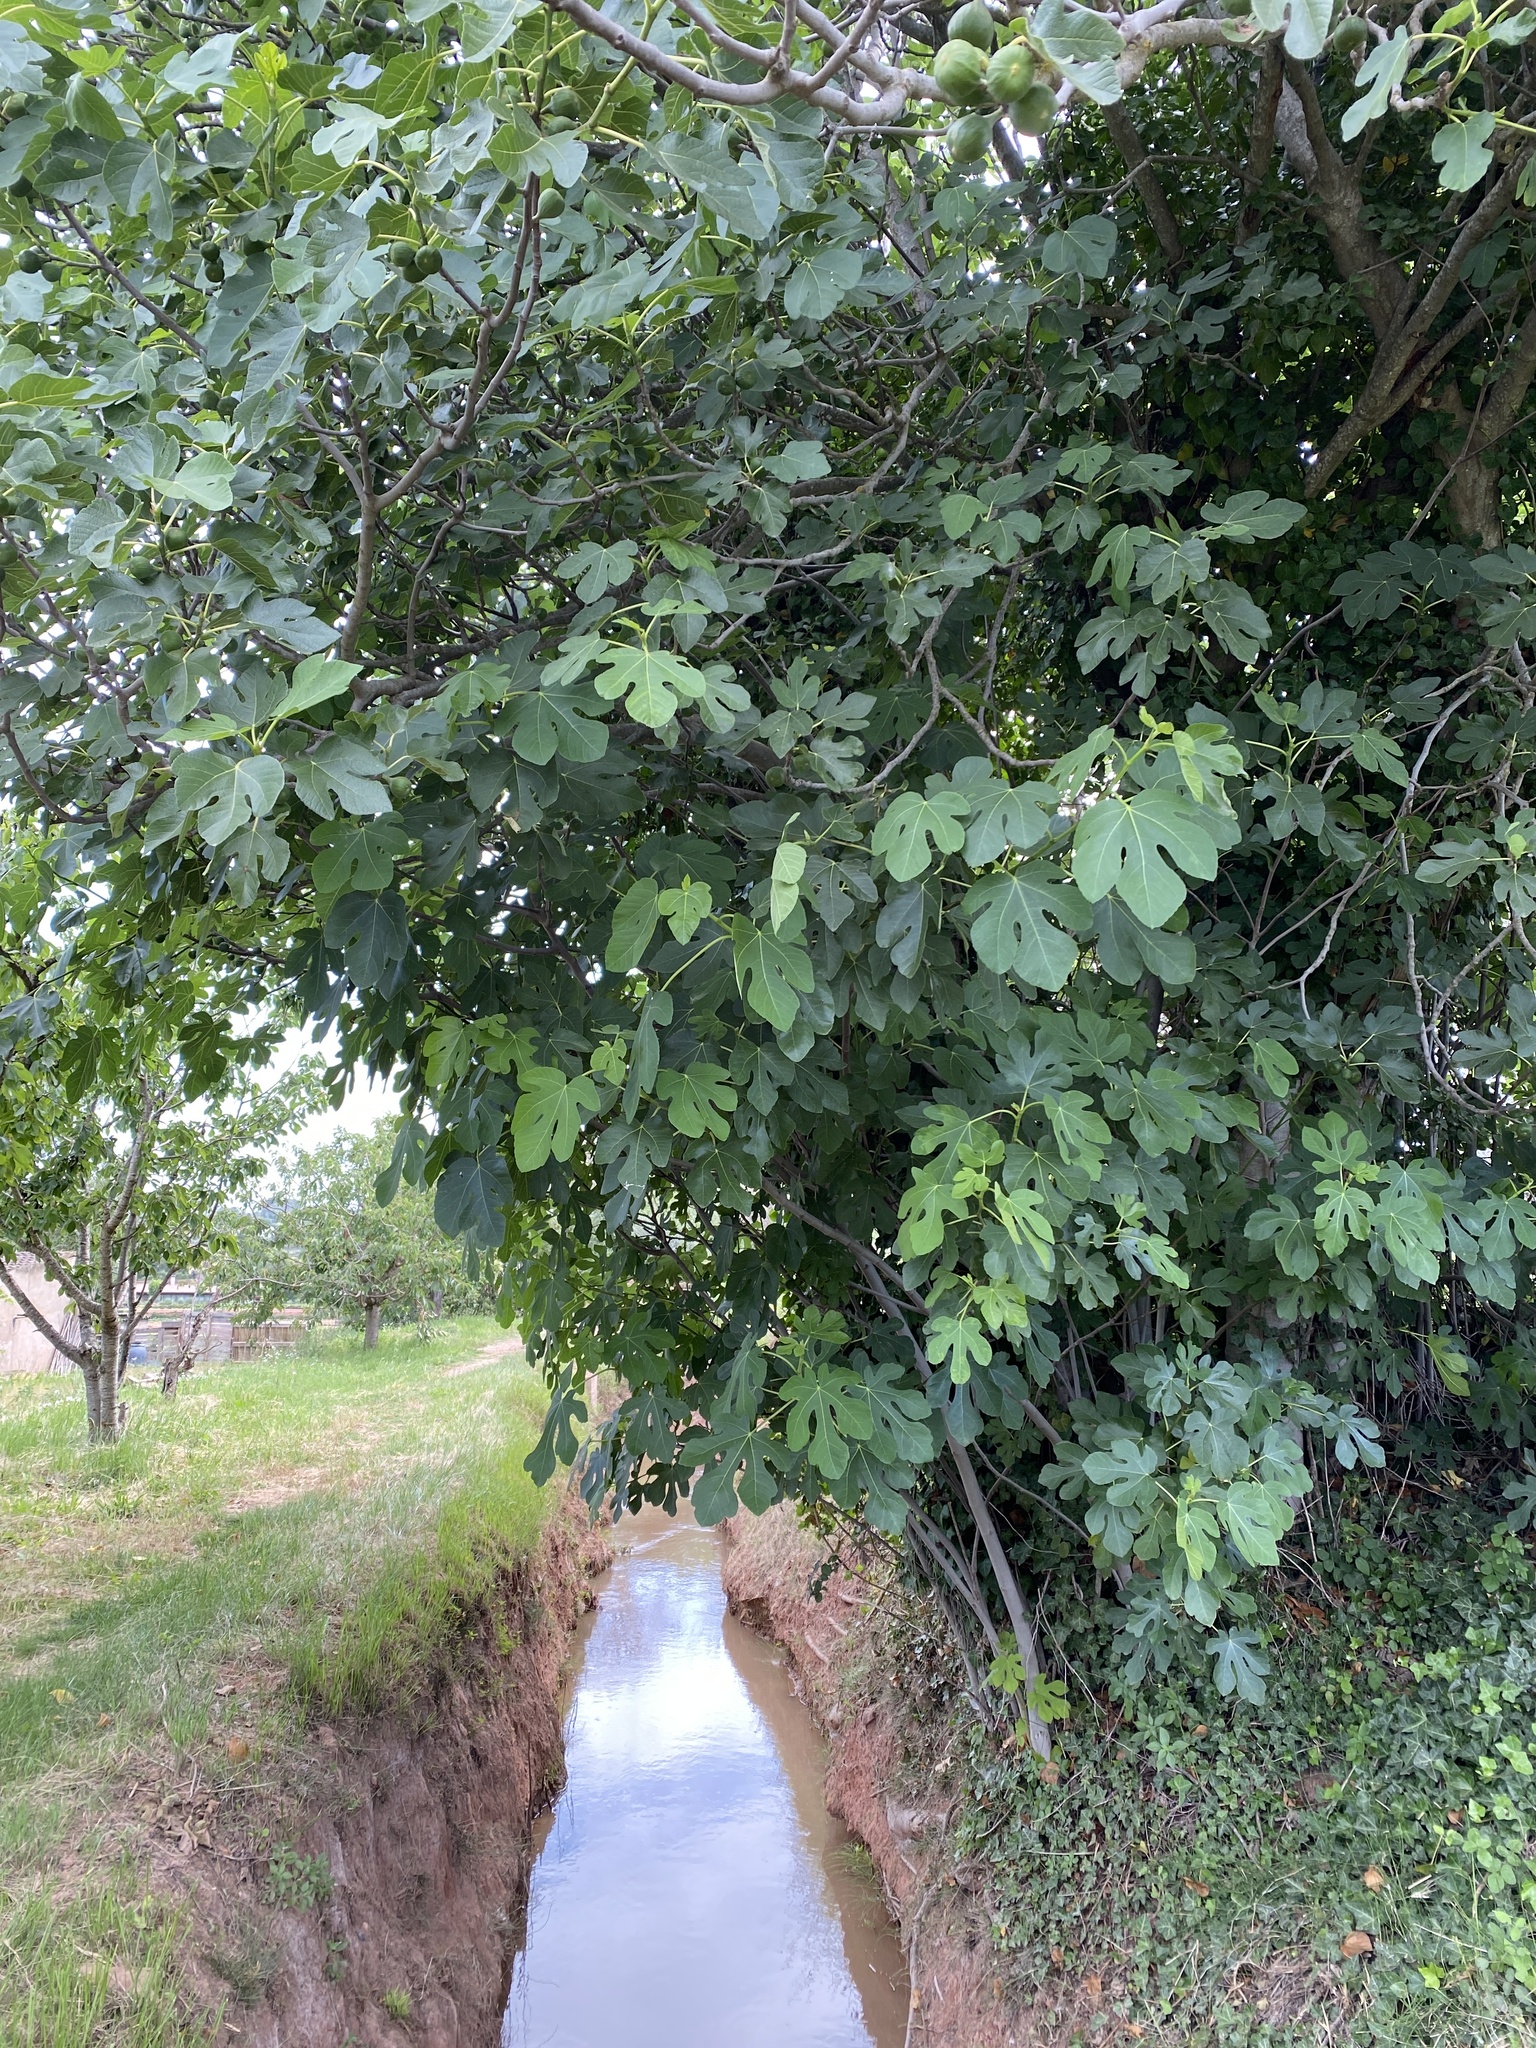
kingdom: Plantae
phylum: Tracheophyta
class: Magnoliopsida
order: Rosales
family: Moraceae
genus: Ficus
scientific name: Ficus carica
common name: Fig
